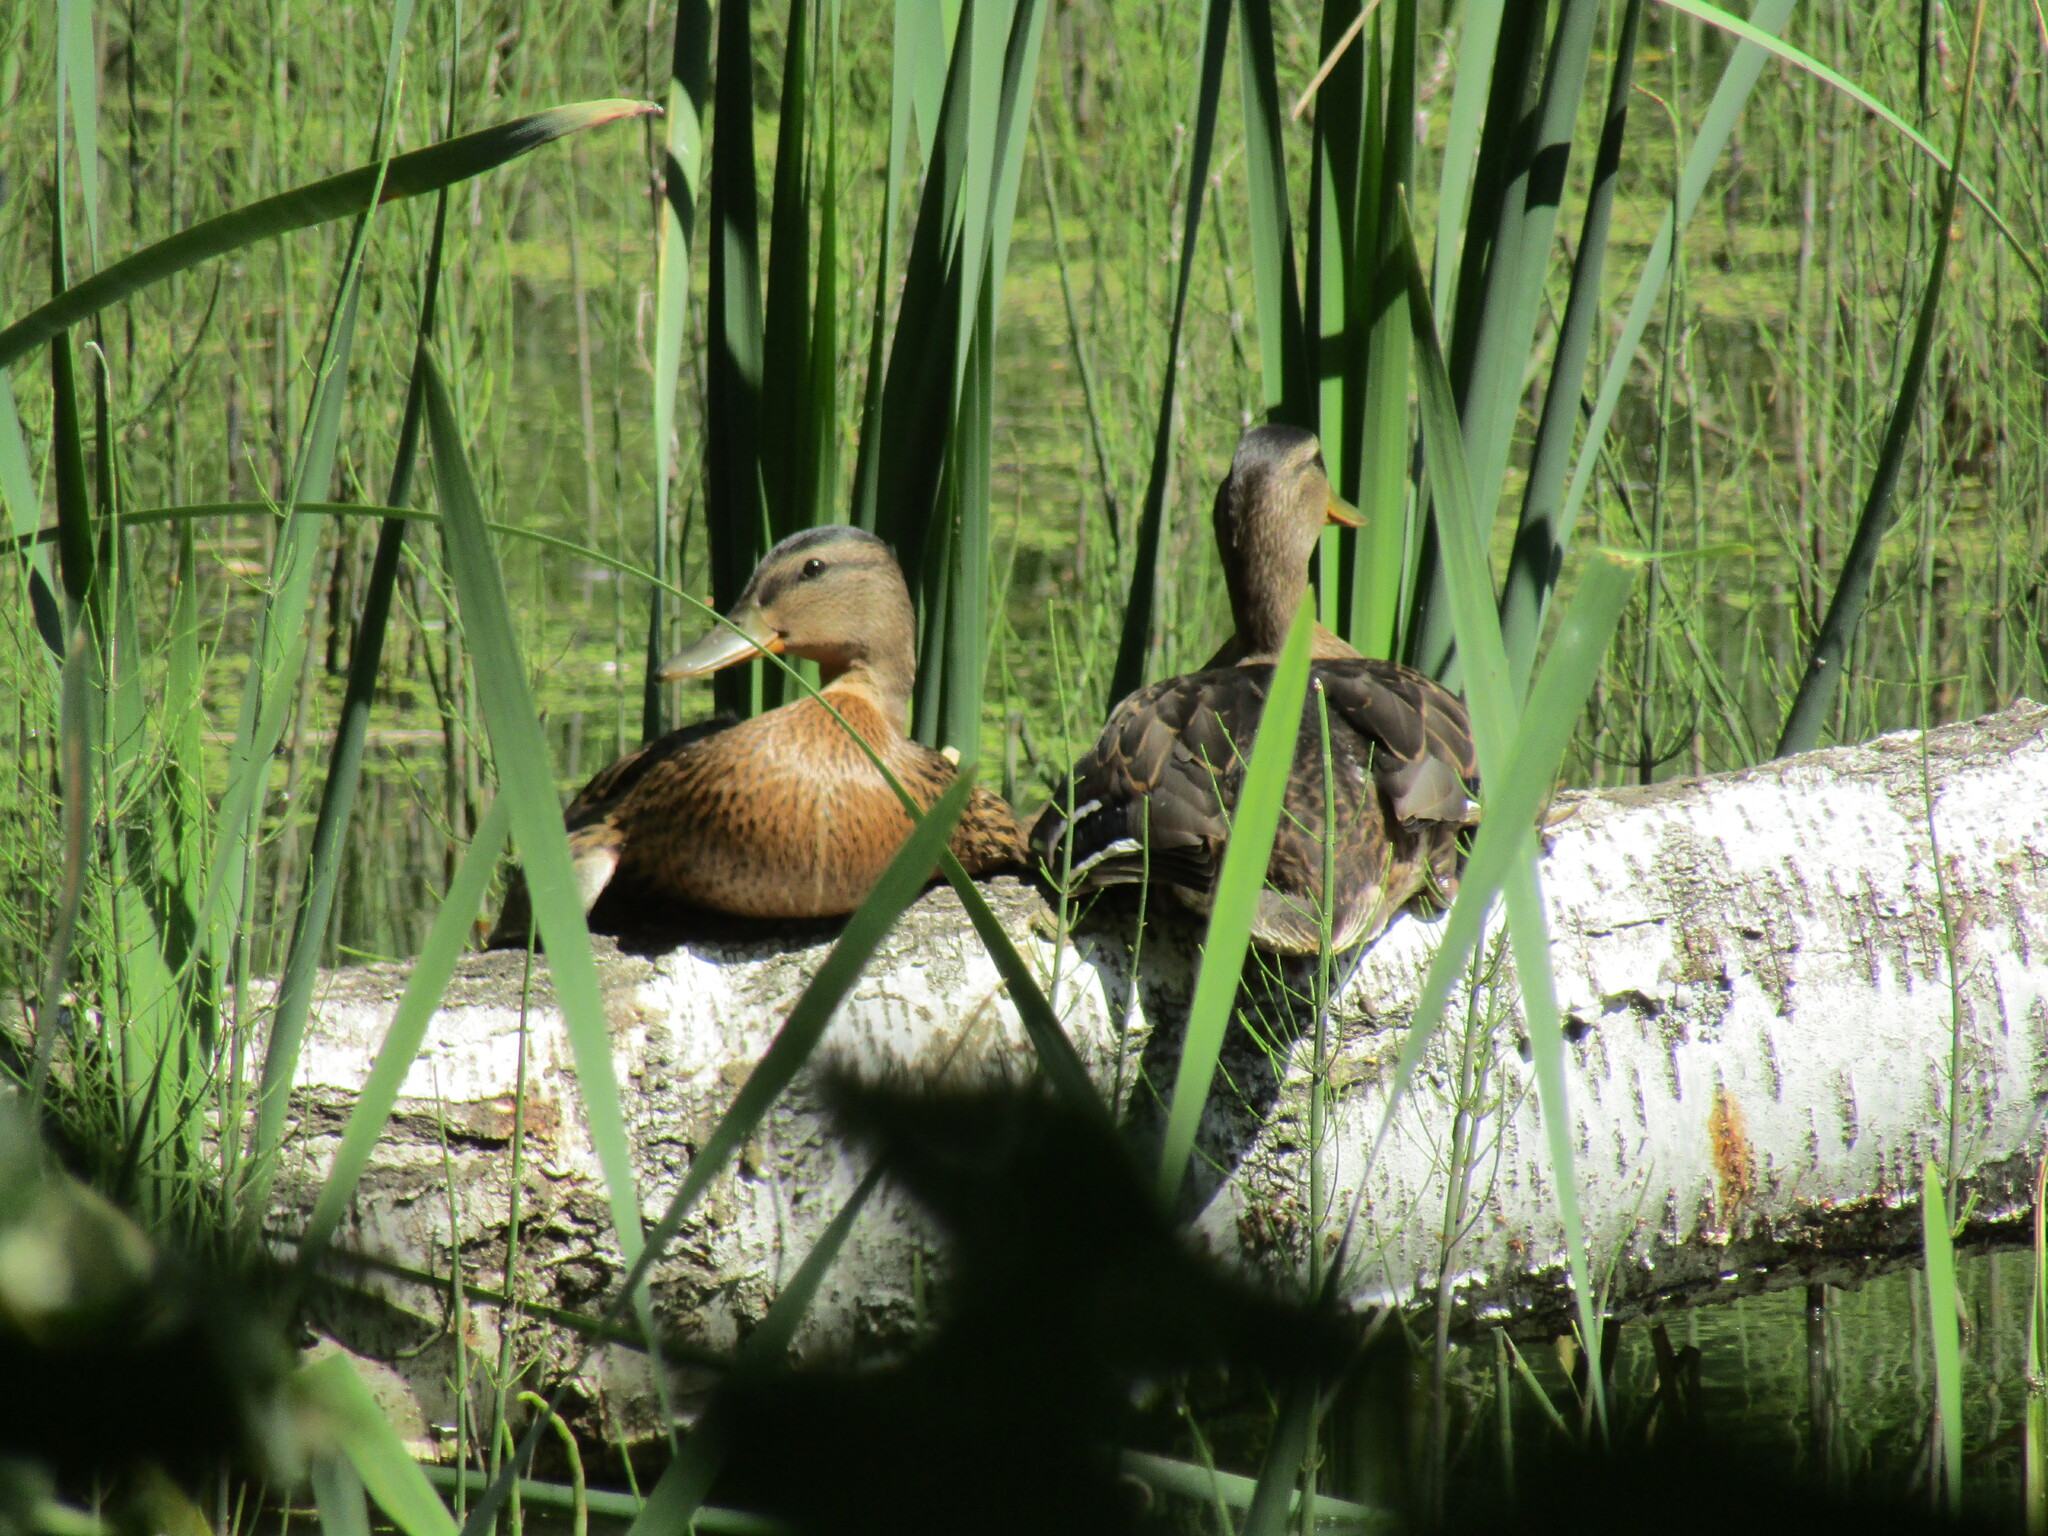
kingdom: Animalia
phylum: Chordata
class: Aves
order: Anseriformes
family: Anatidae
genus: Anas
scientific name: Anas platyrhynchos
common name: Mallard
